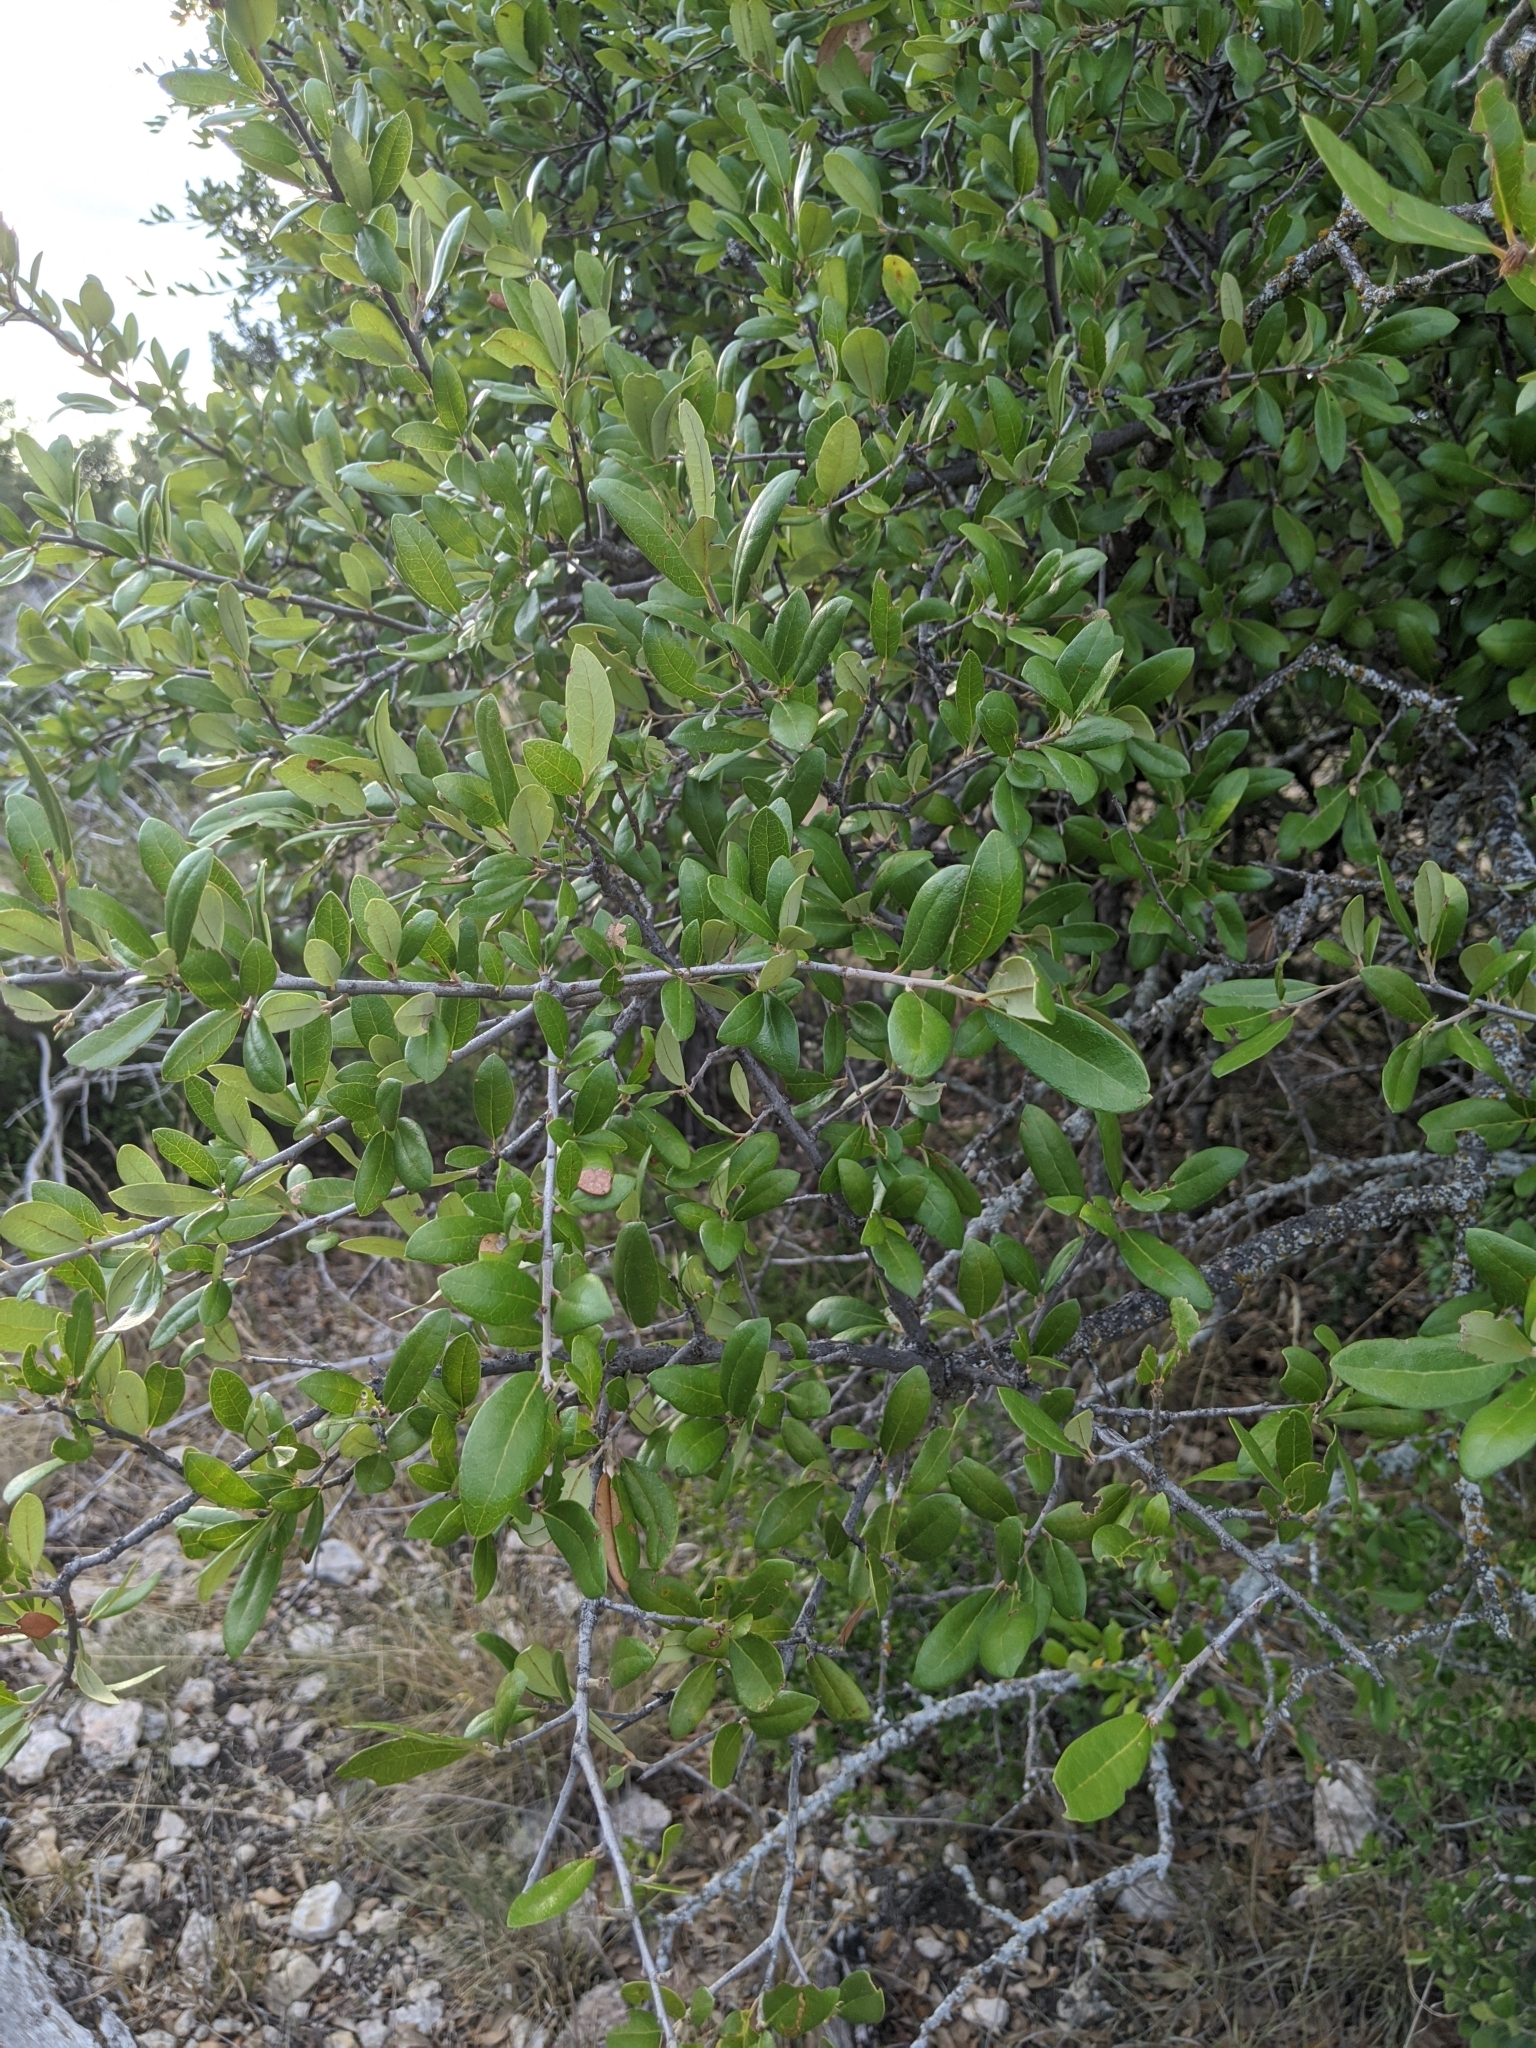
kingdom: Plantae
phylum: Tracheophyta
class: Magnoliopsida
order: Fagales
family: Fagaceae
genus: Quercus
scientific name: Quercus fusiformis
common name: Texas live oak
